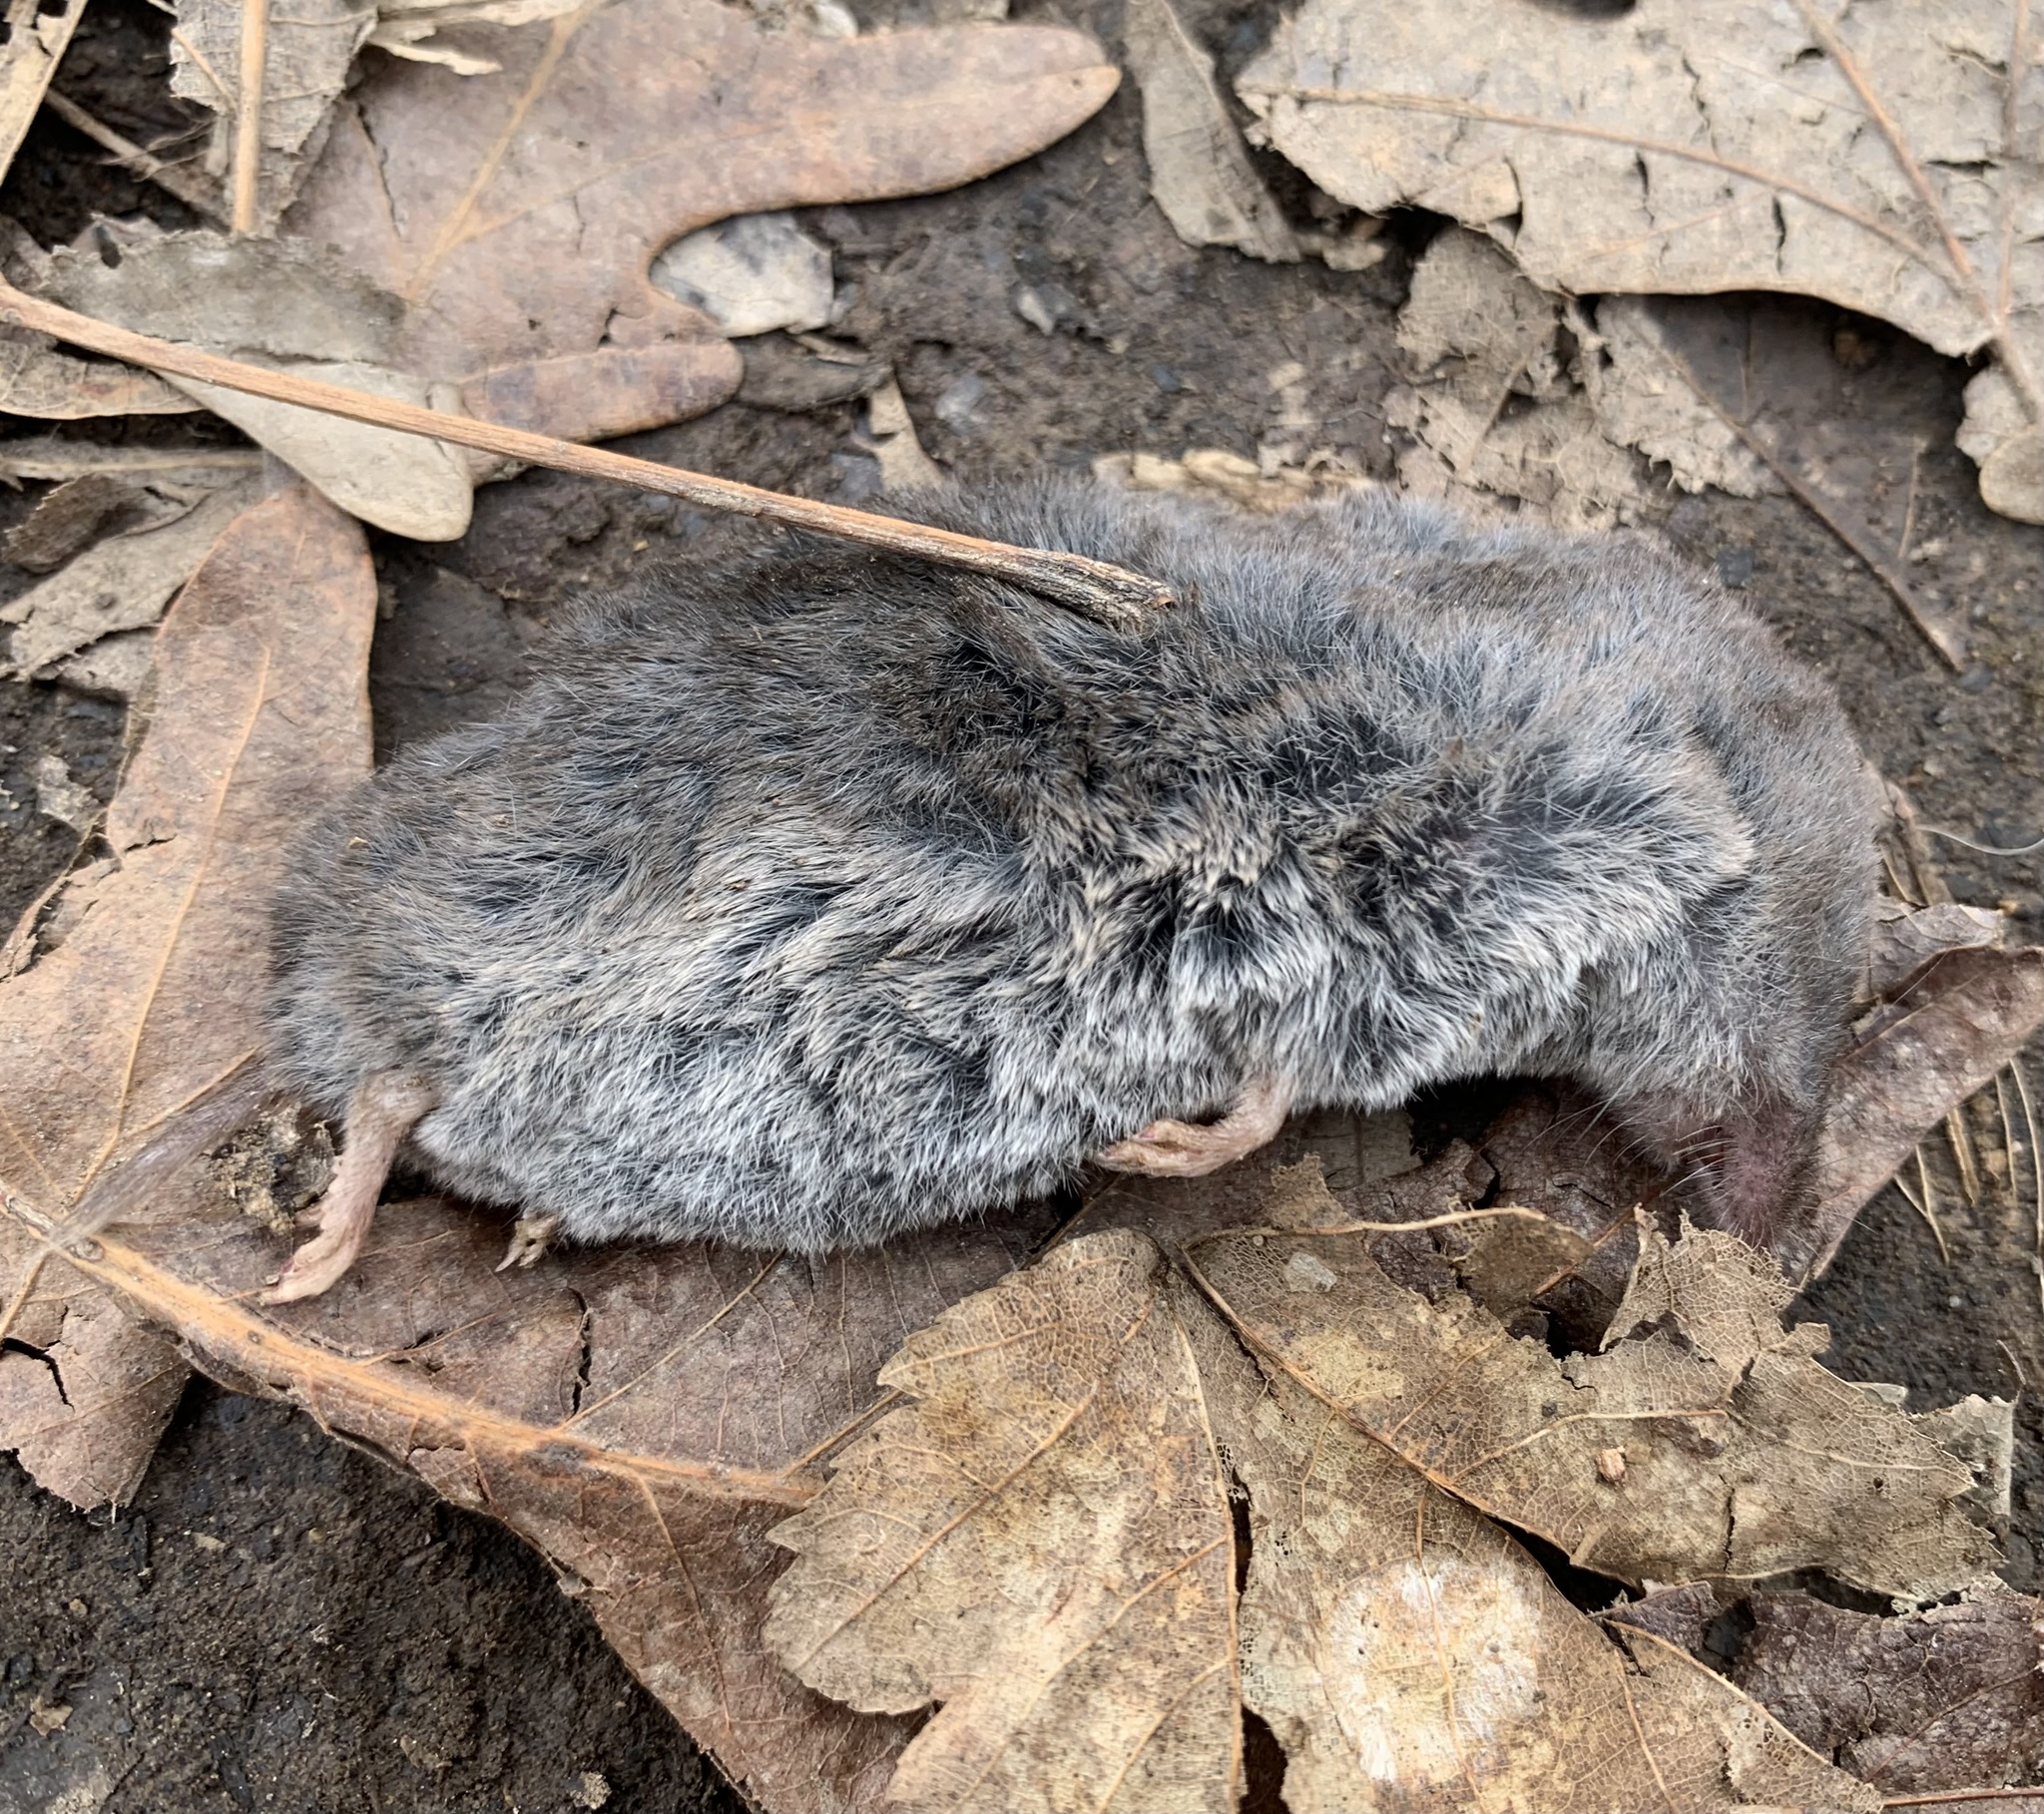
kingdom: Animalia
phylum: Chordata
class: Mammalia
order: Soricomorpha
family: Soricidae
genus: Blarina
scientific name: Blarina carolinensis
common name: Southern short-tailed shrew
